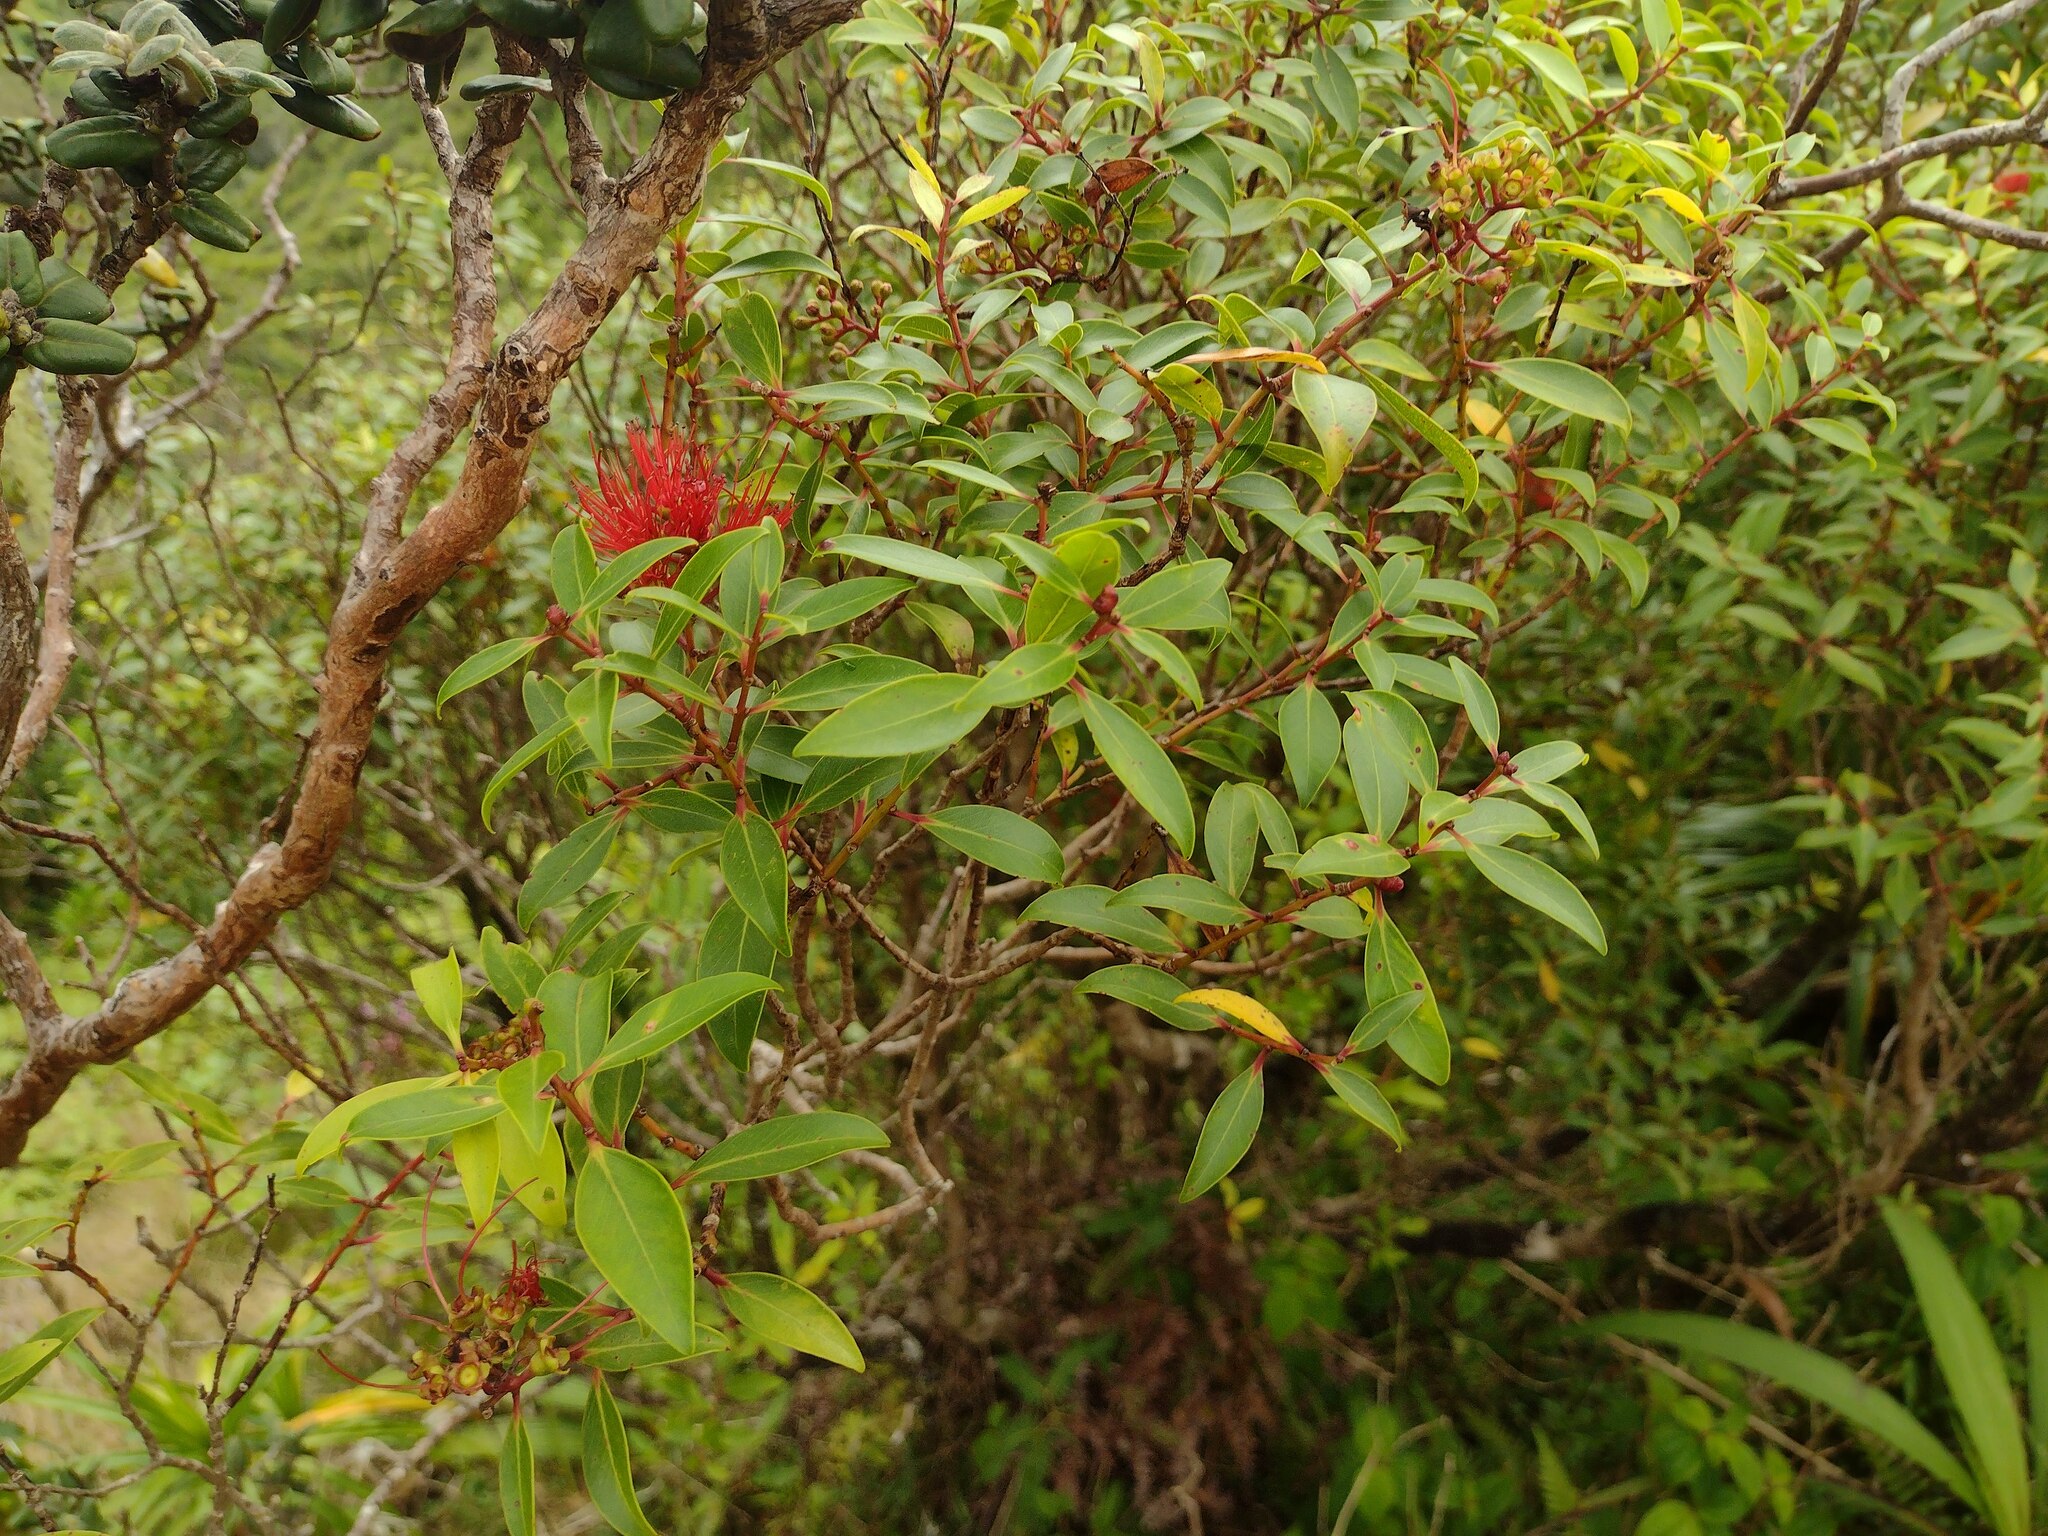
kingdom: Plantae
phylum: Tracheophyta
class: Magnoliopsida
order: Myrtales
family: Myrtaceae
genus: Metrosideros
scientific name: Metrosideros tremuloides
